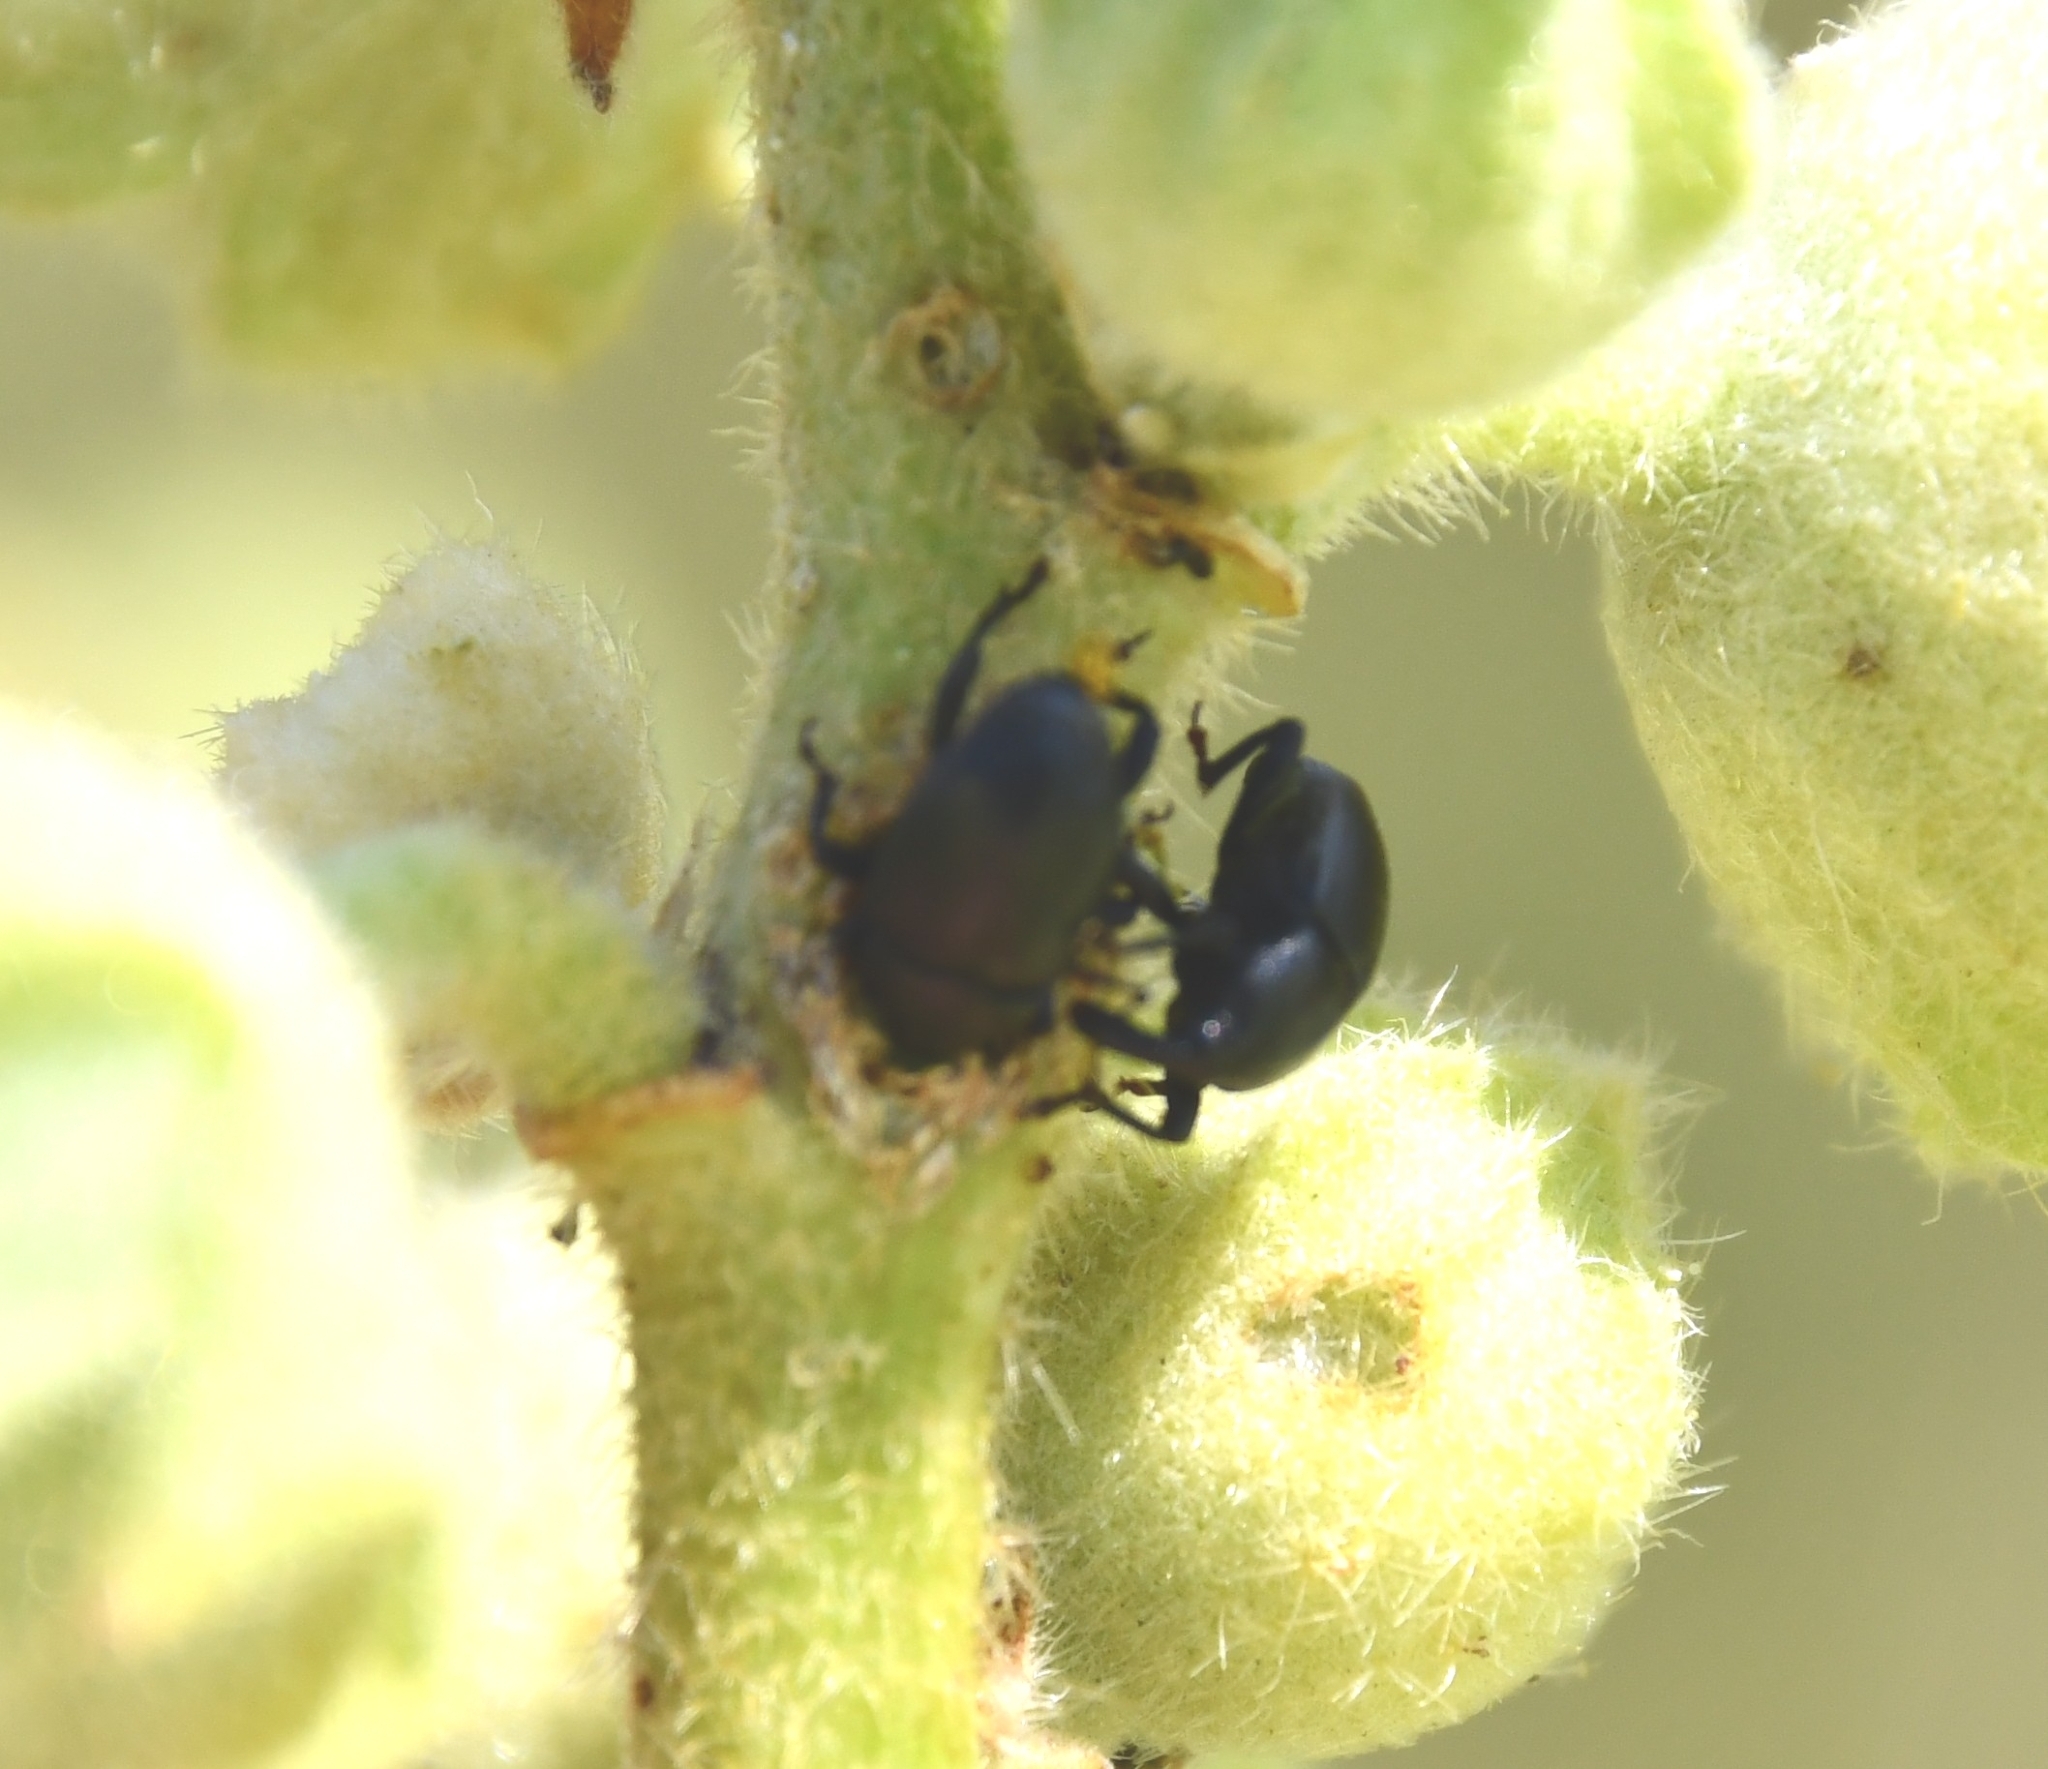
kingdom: Animalia
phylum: Arthropoda
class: Insecta
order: Coleoptera
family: Curculionidae
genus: Malvaevora
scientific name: Malvaevora timida
